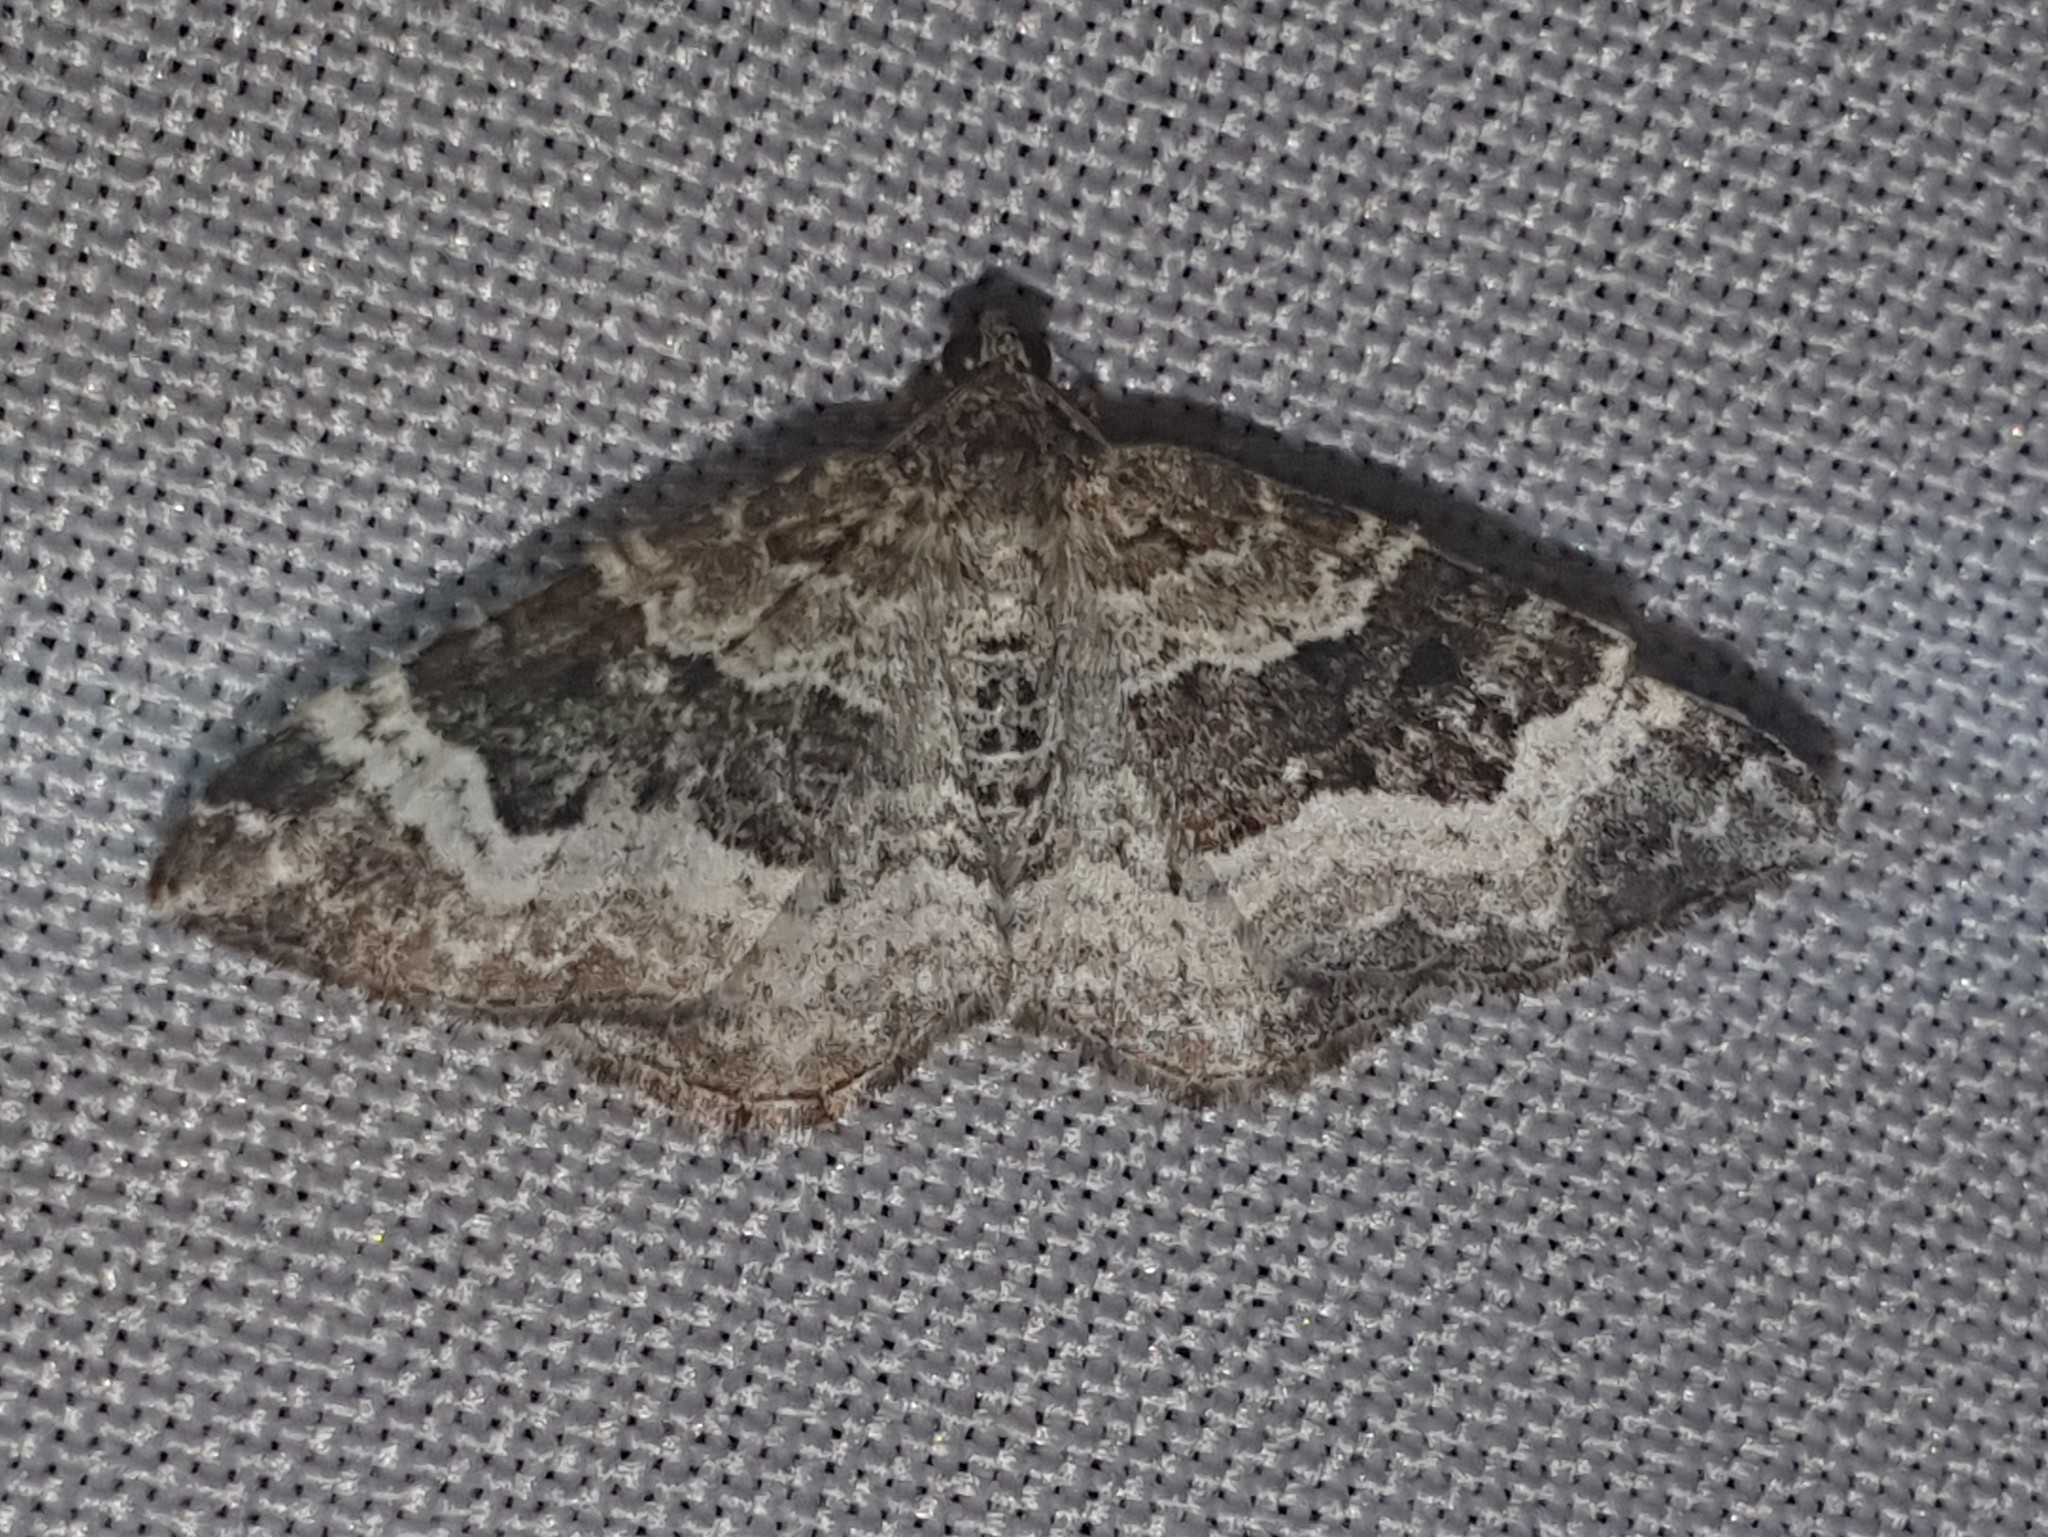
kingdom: Animalia
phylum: Arthropoda
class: Insecta
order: Lepidoptera
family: Geometridae
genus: Epirrhoe
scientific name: Epirrhoe alternata
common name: Common carpet
